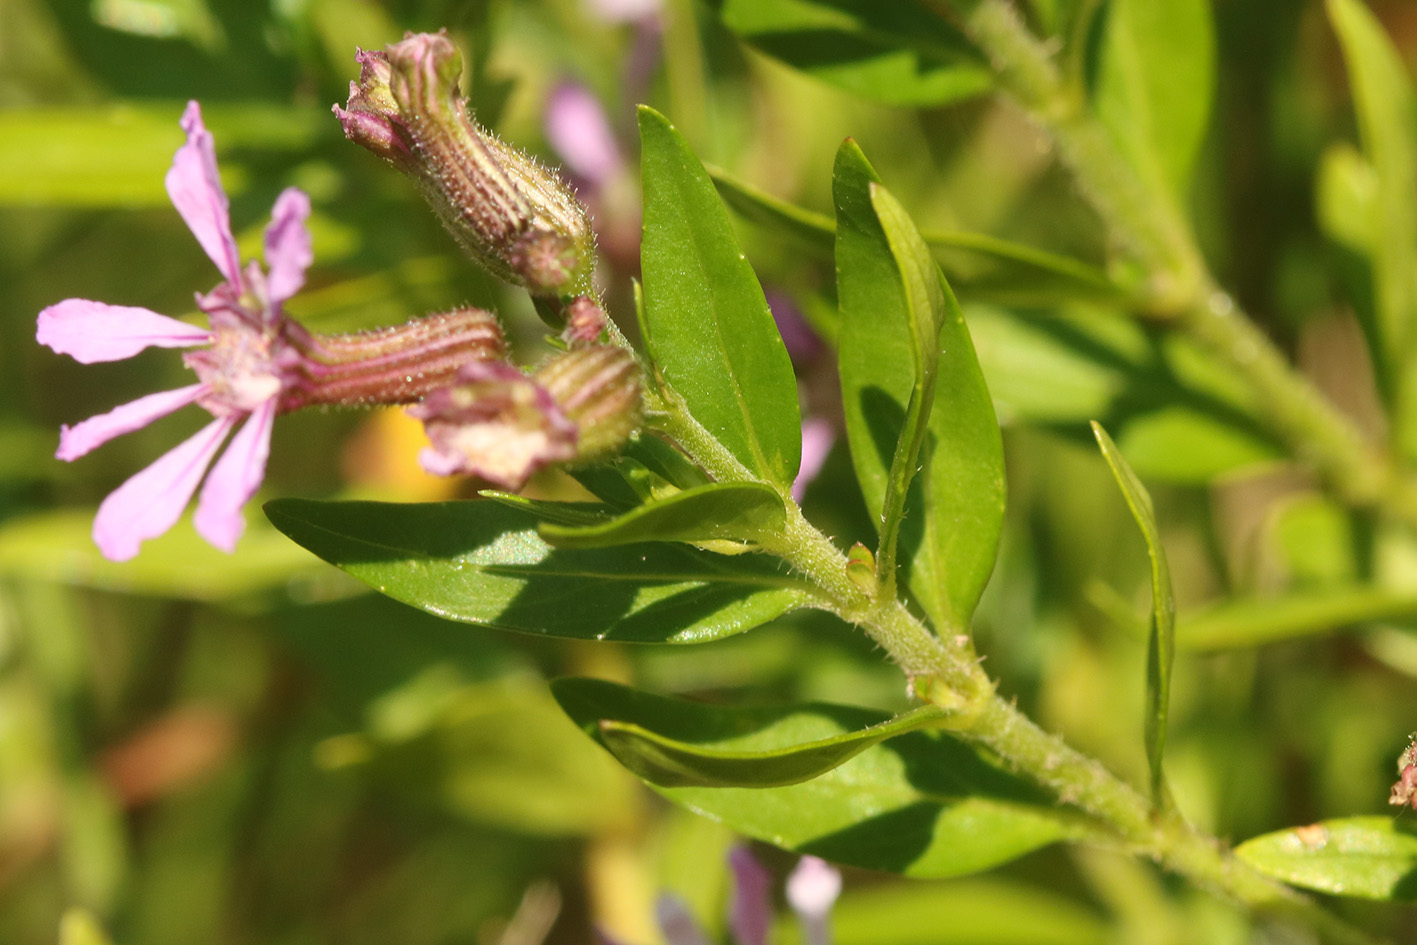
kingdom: Plantae
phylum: Tracheophyta
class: Magnoliopsida
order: Myrtales
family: Lythraceae
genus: Cuphea
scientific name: Cuphea fruticosa
